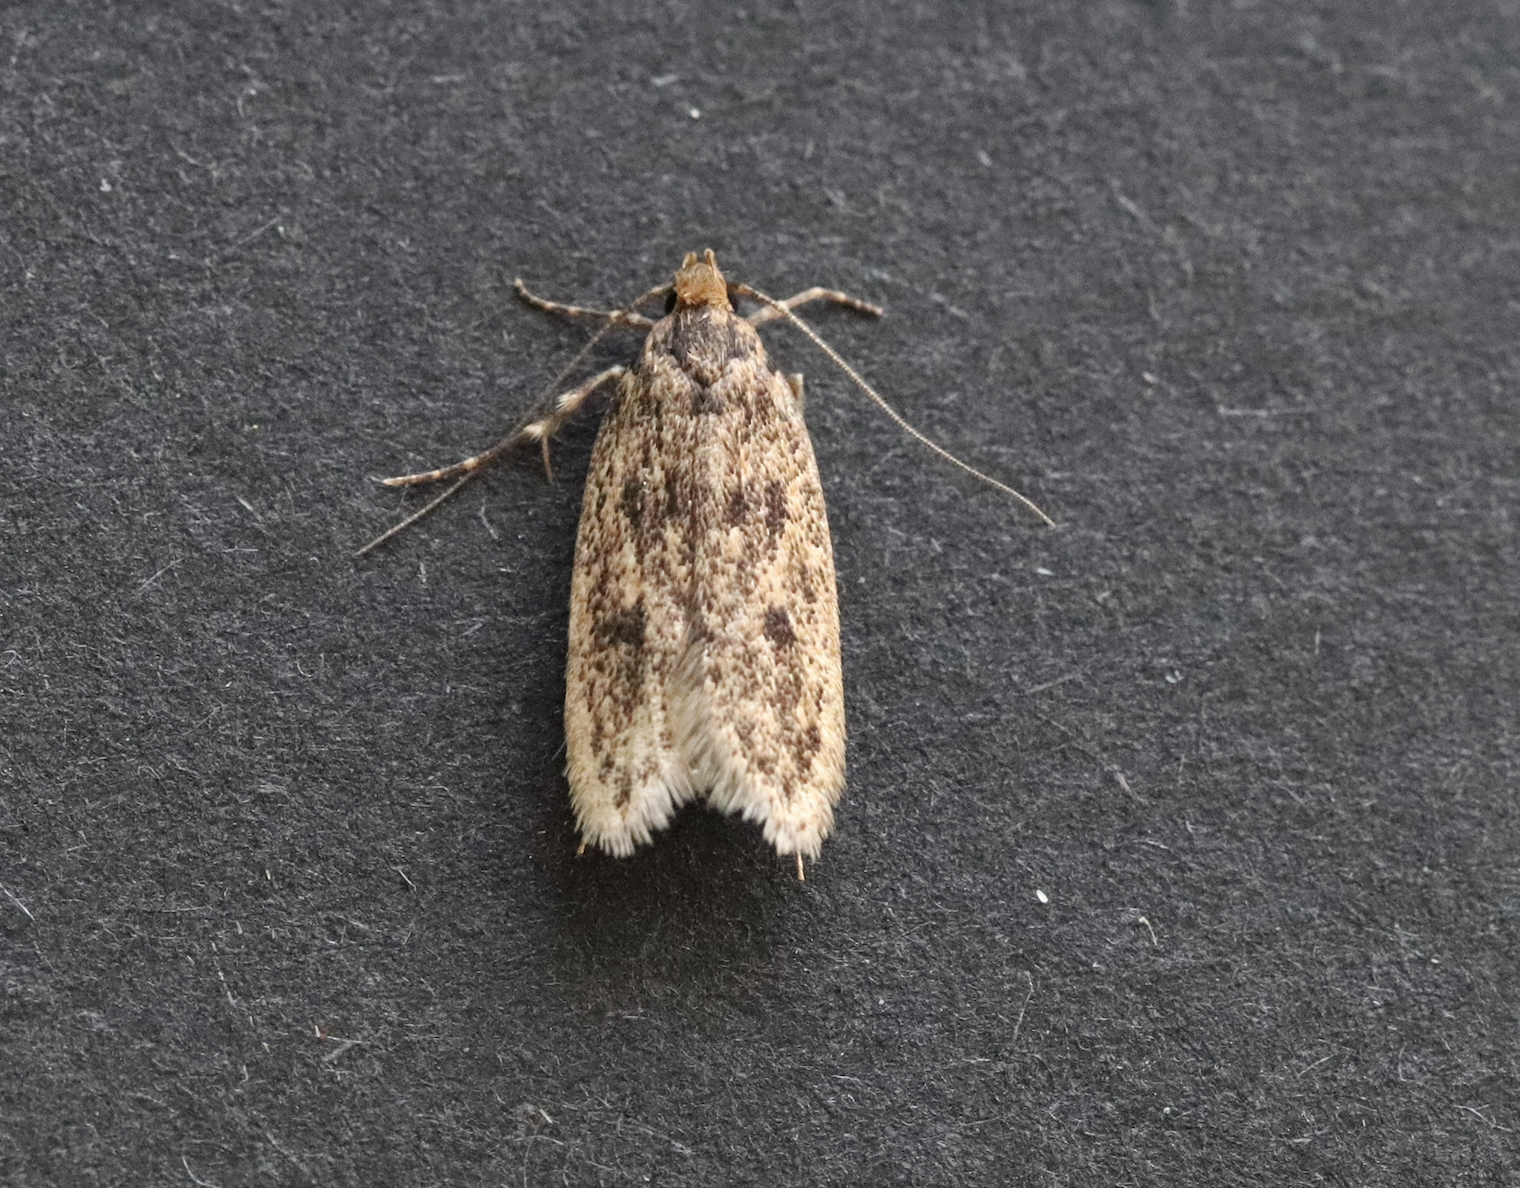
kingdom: Animalia
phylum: Arthropoda
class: Insecta
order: Lepidoptera
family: Oecophoridae
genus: Hofmannophila
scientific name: Hofmannophila pseudospretella
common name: Brown house moth
